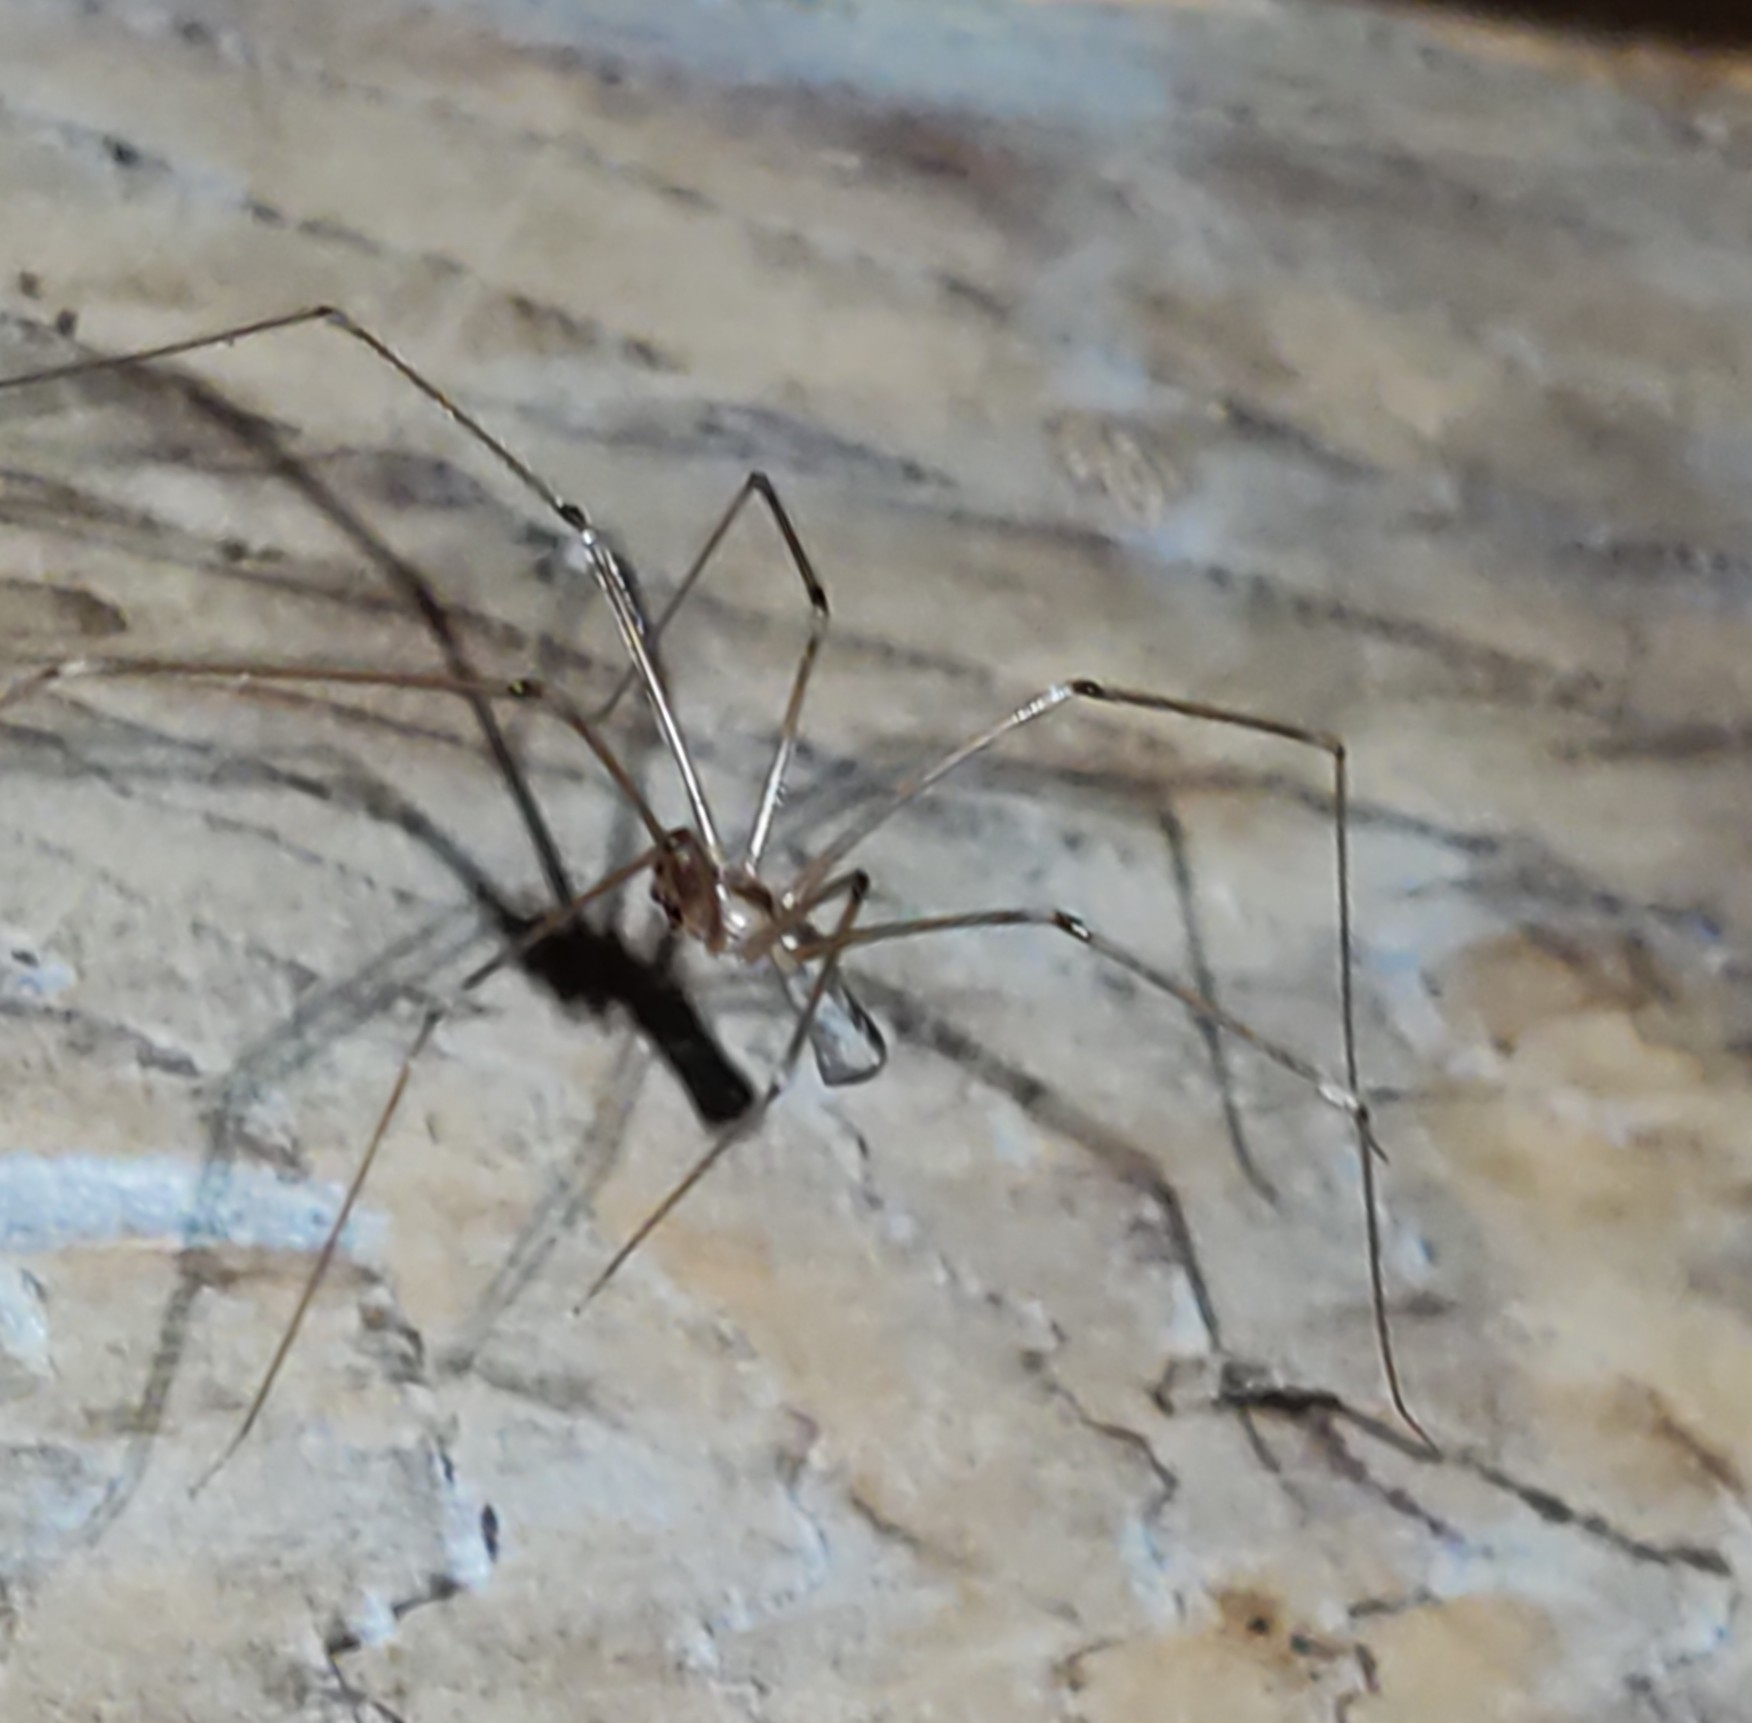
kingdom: Animalia
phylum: Arthropoda
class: Arachnida
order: Araneae
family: Pholcidae
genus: Pholcus
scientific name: Pholcus phalangioides
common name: Longbodied cellar spider
